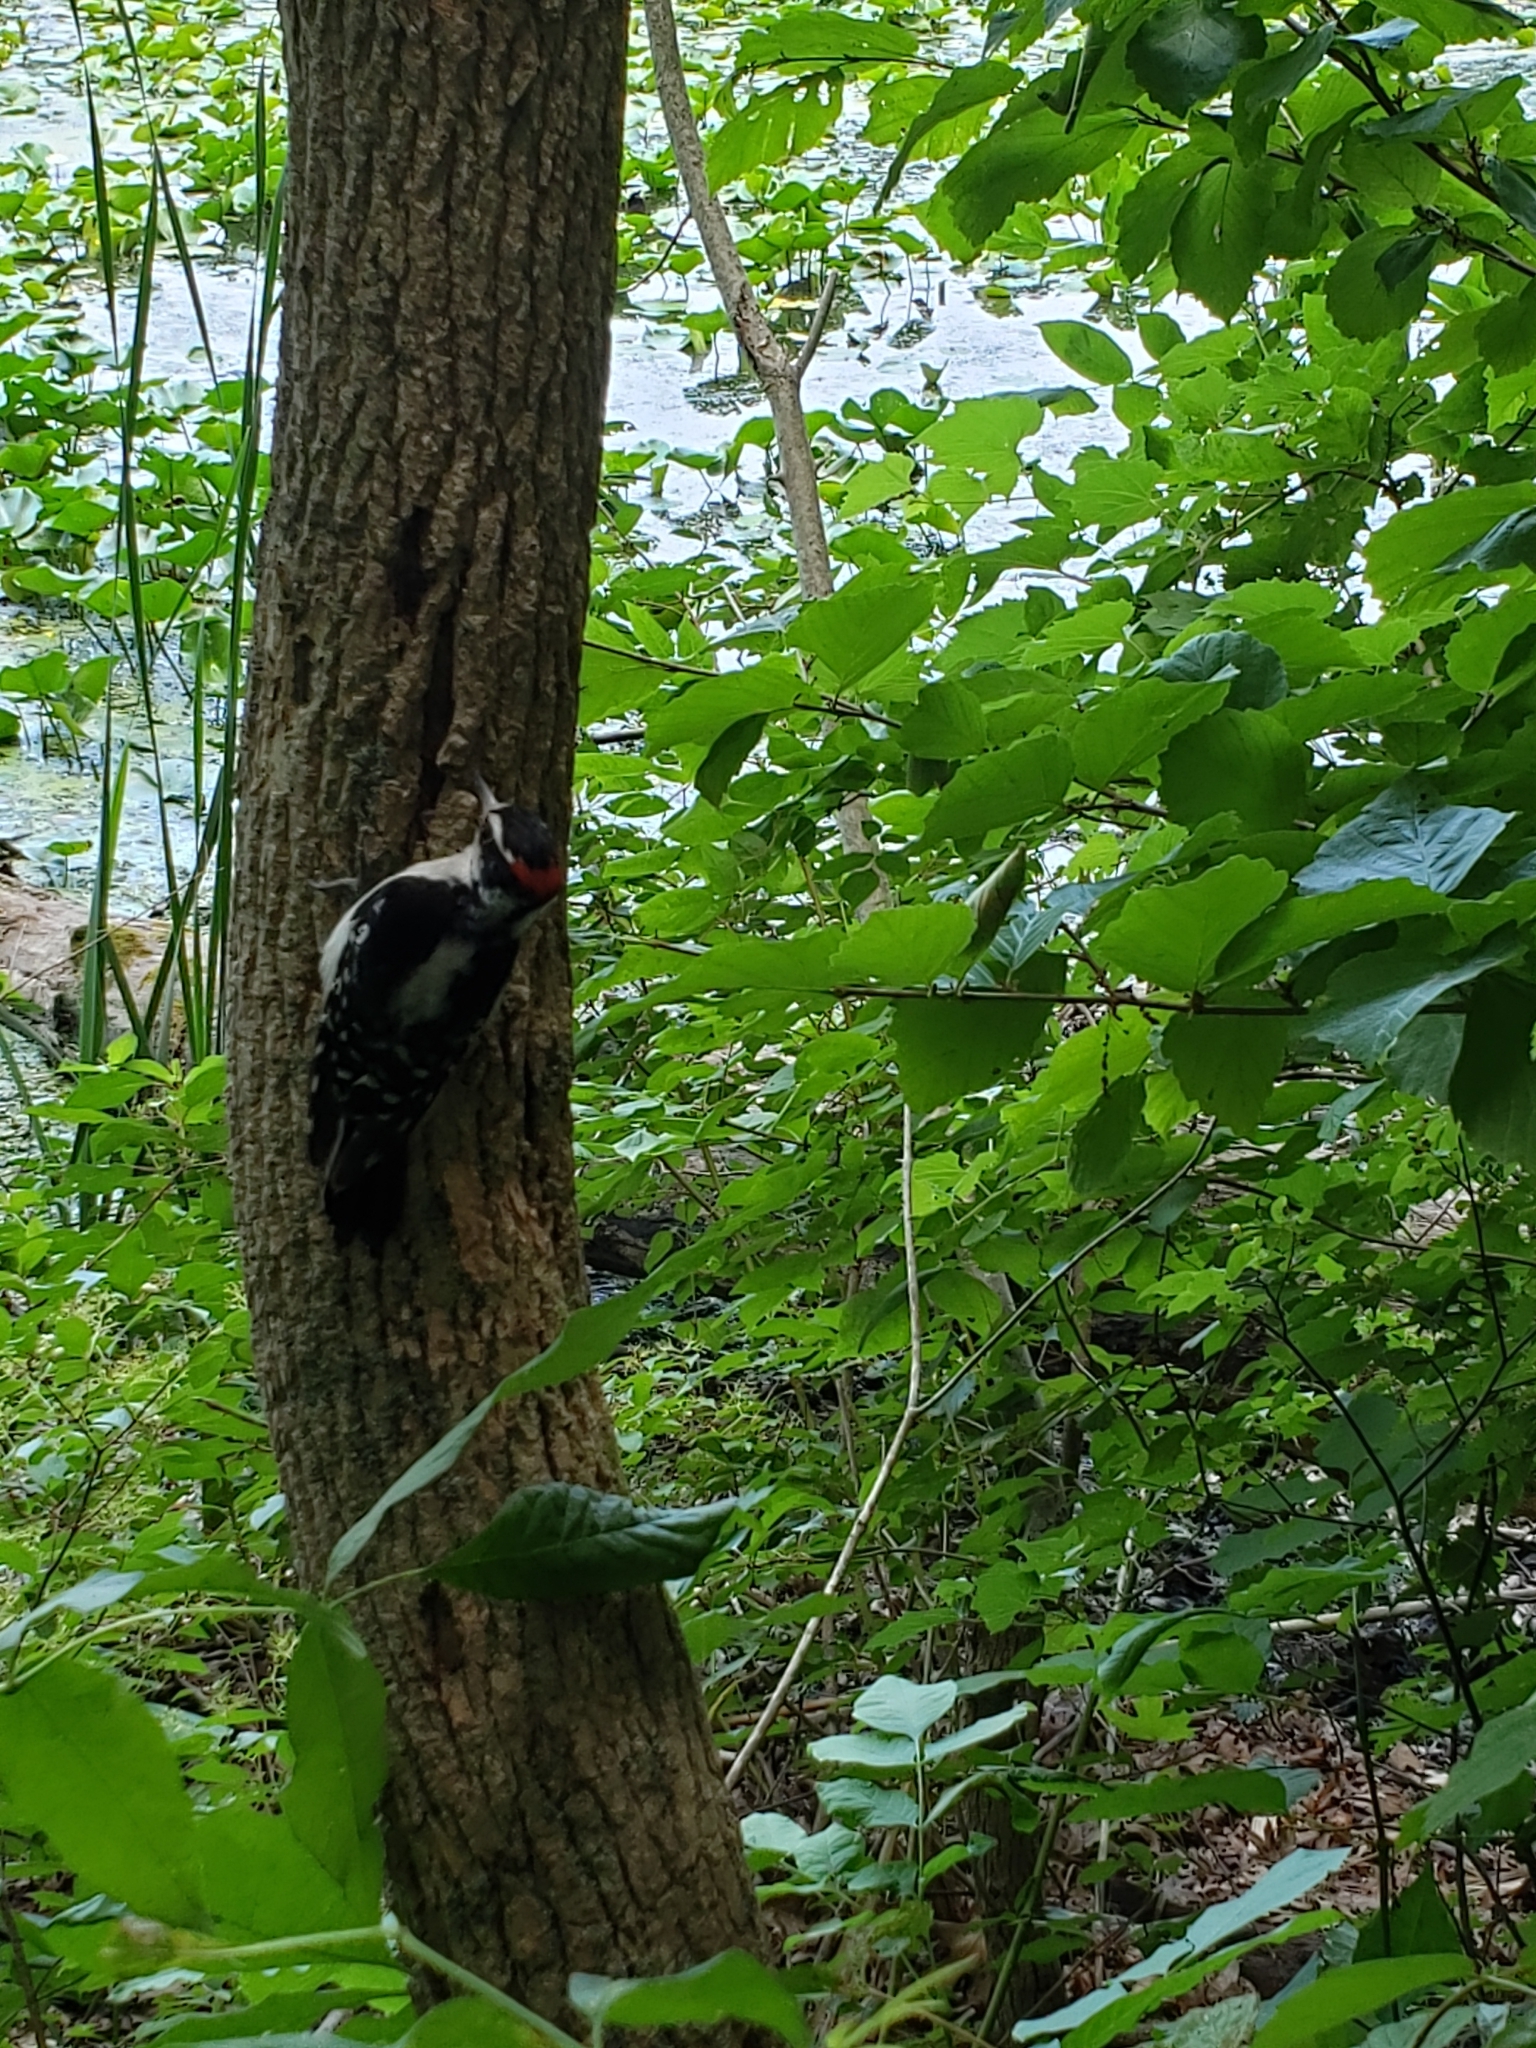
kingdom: Animalia
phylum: Chordata
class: Aves
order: Piciformes
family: Picidae
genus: Dryobates
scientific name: Dryobates pubescens
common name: Downy woodpecker
